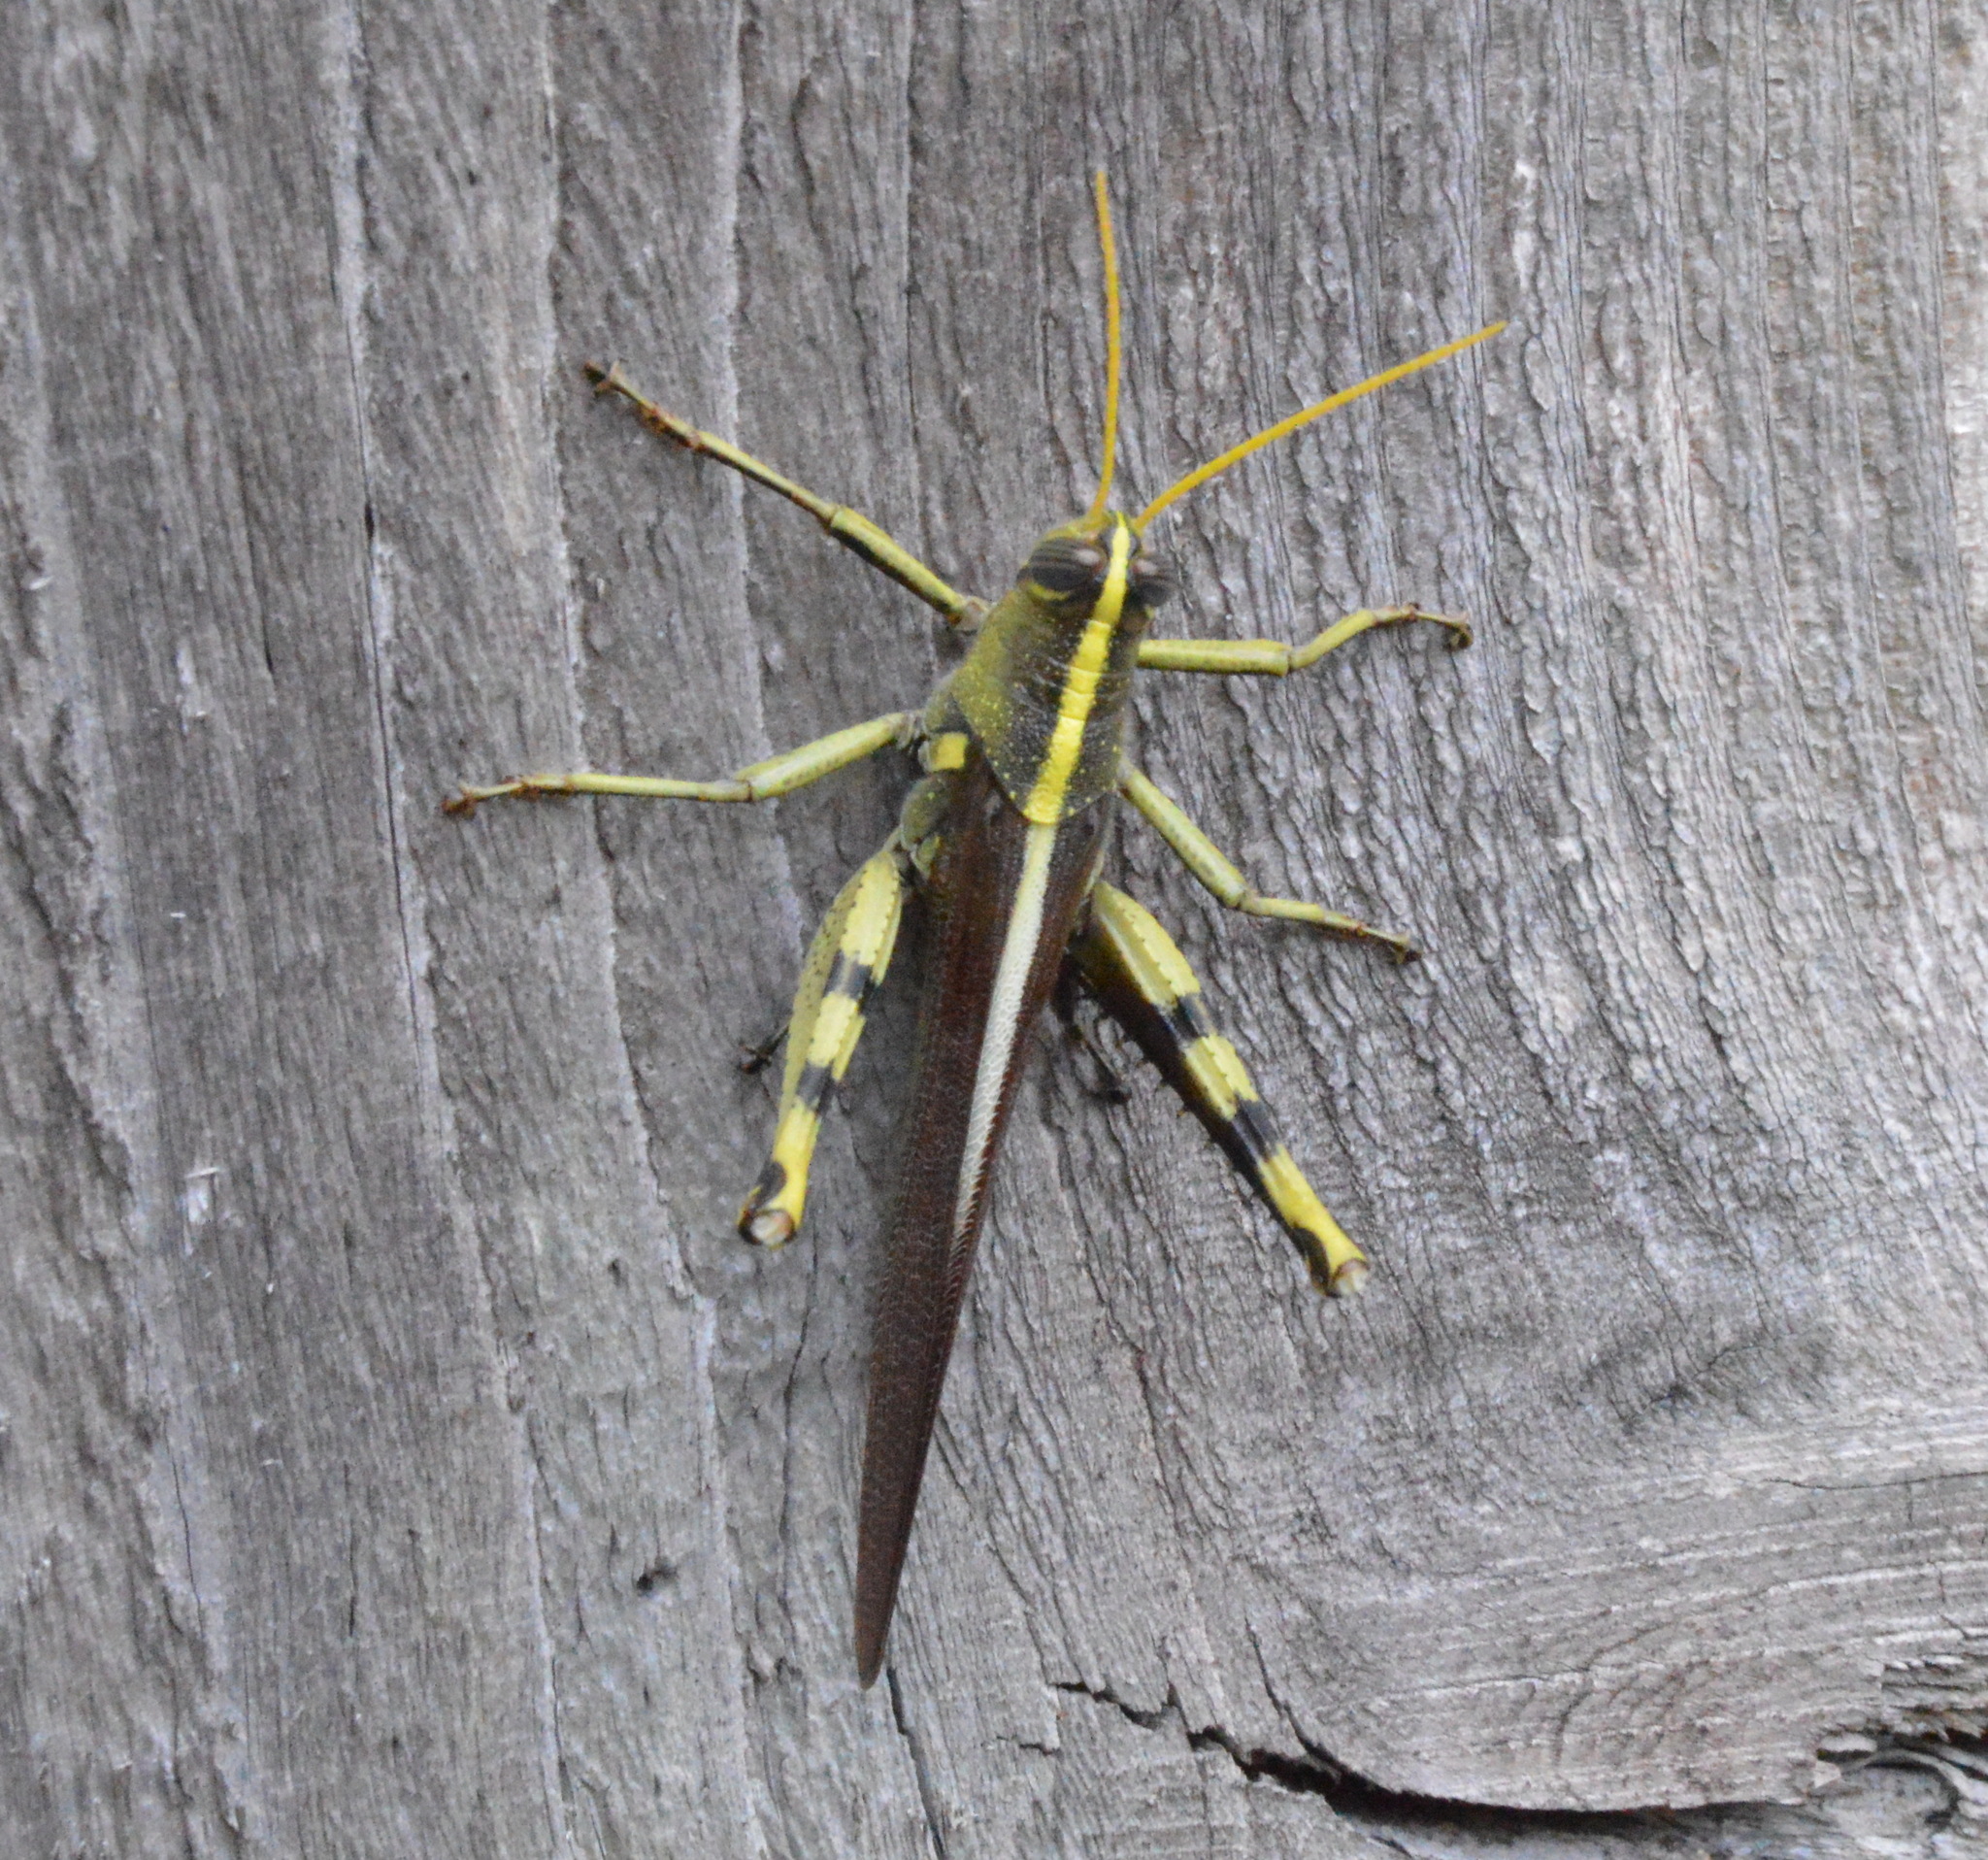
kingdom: Animalia
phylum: Arthropoda
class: Insecta
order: Orthoptera
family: Acrididae
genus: Schistocerca
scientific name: Schistocerca obscura
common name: Obscure bird grasshopper
